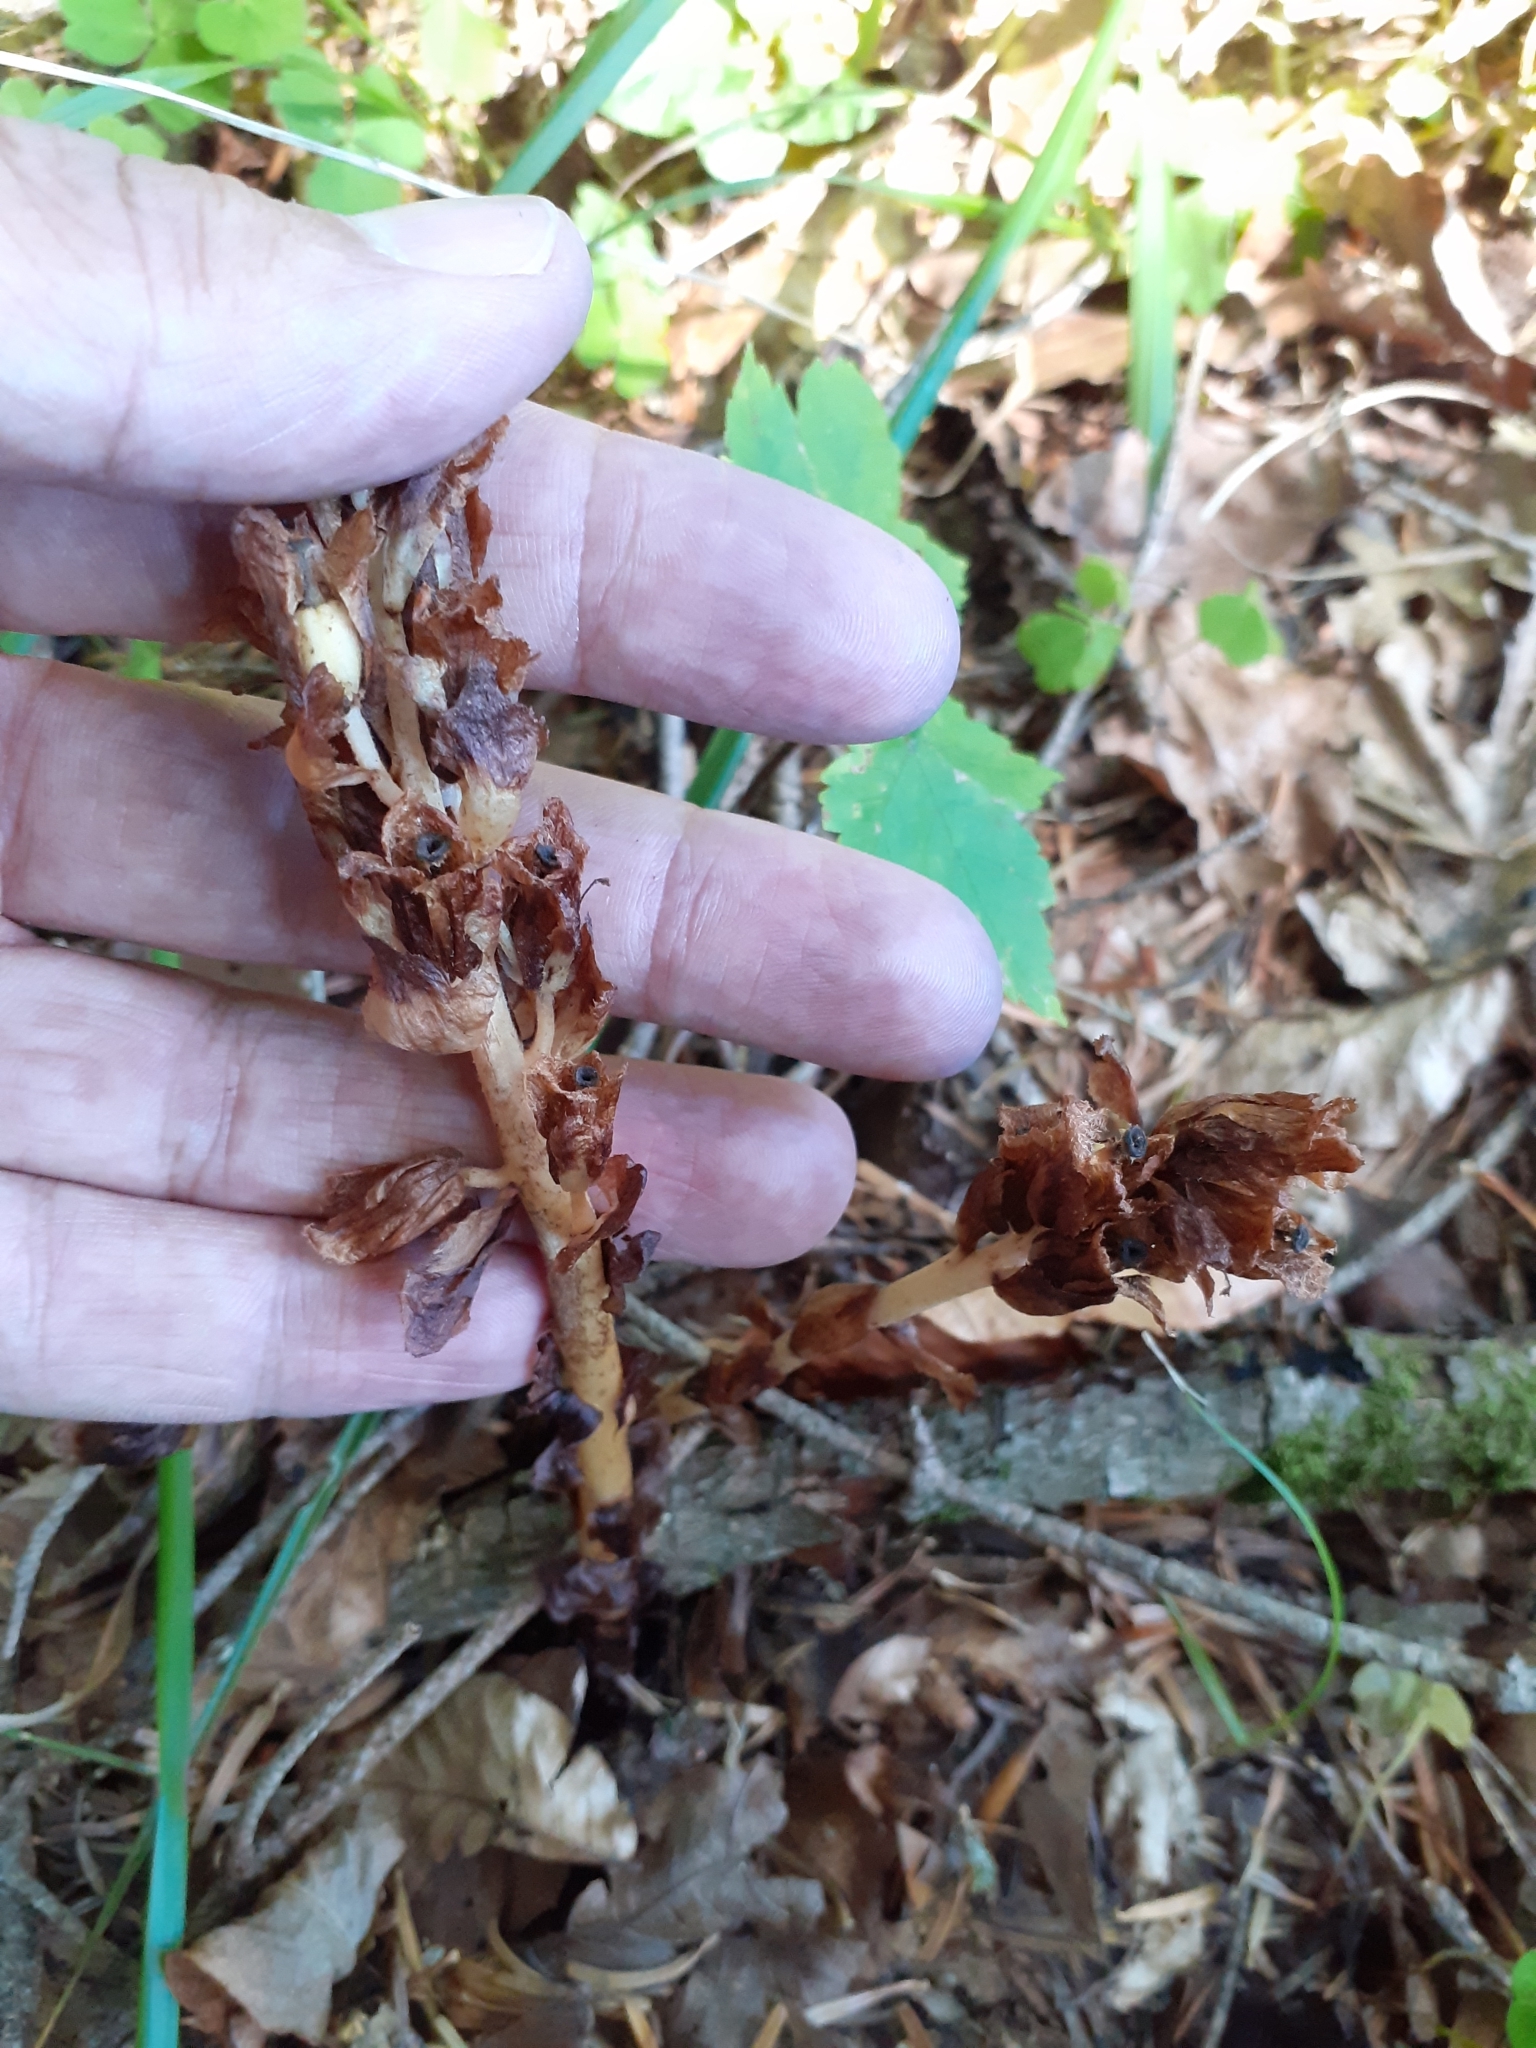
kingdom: Plantae
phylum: Tracheophyta
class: Magnoliopsida
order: Ericales
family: Ericaceae
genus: Hypopitys
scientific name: Hypopitys monotropa
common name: Yellow bird's-nest
